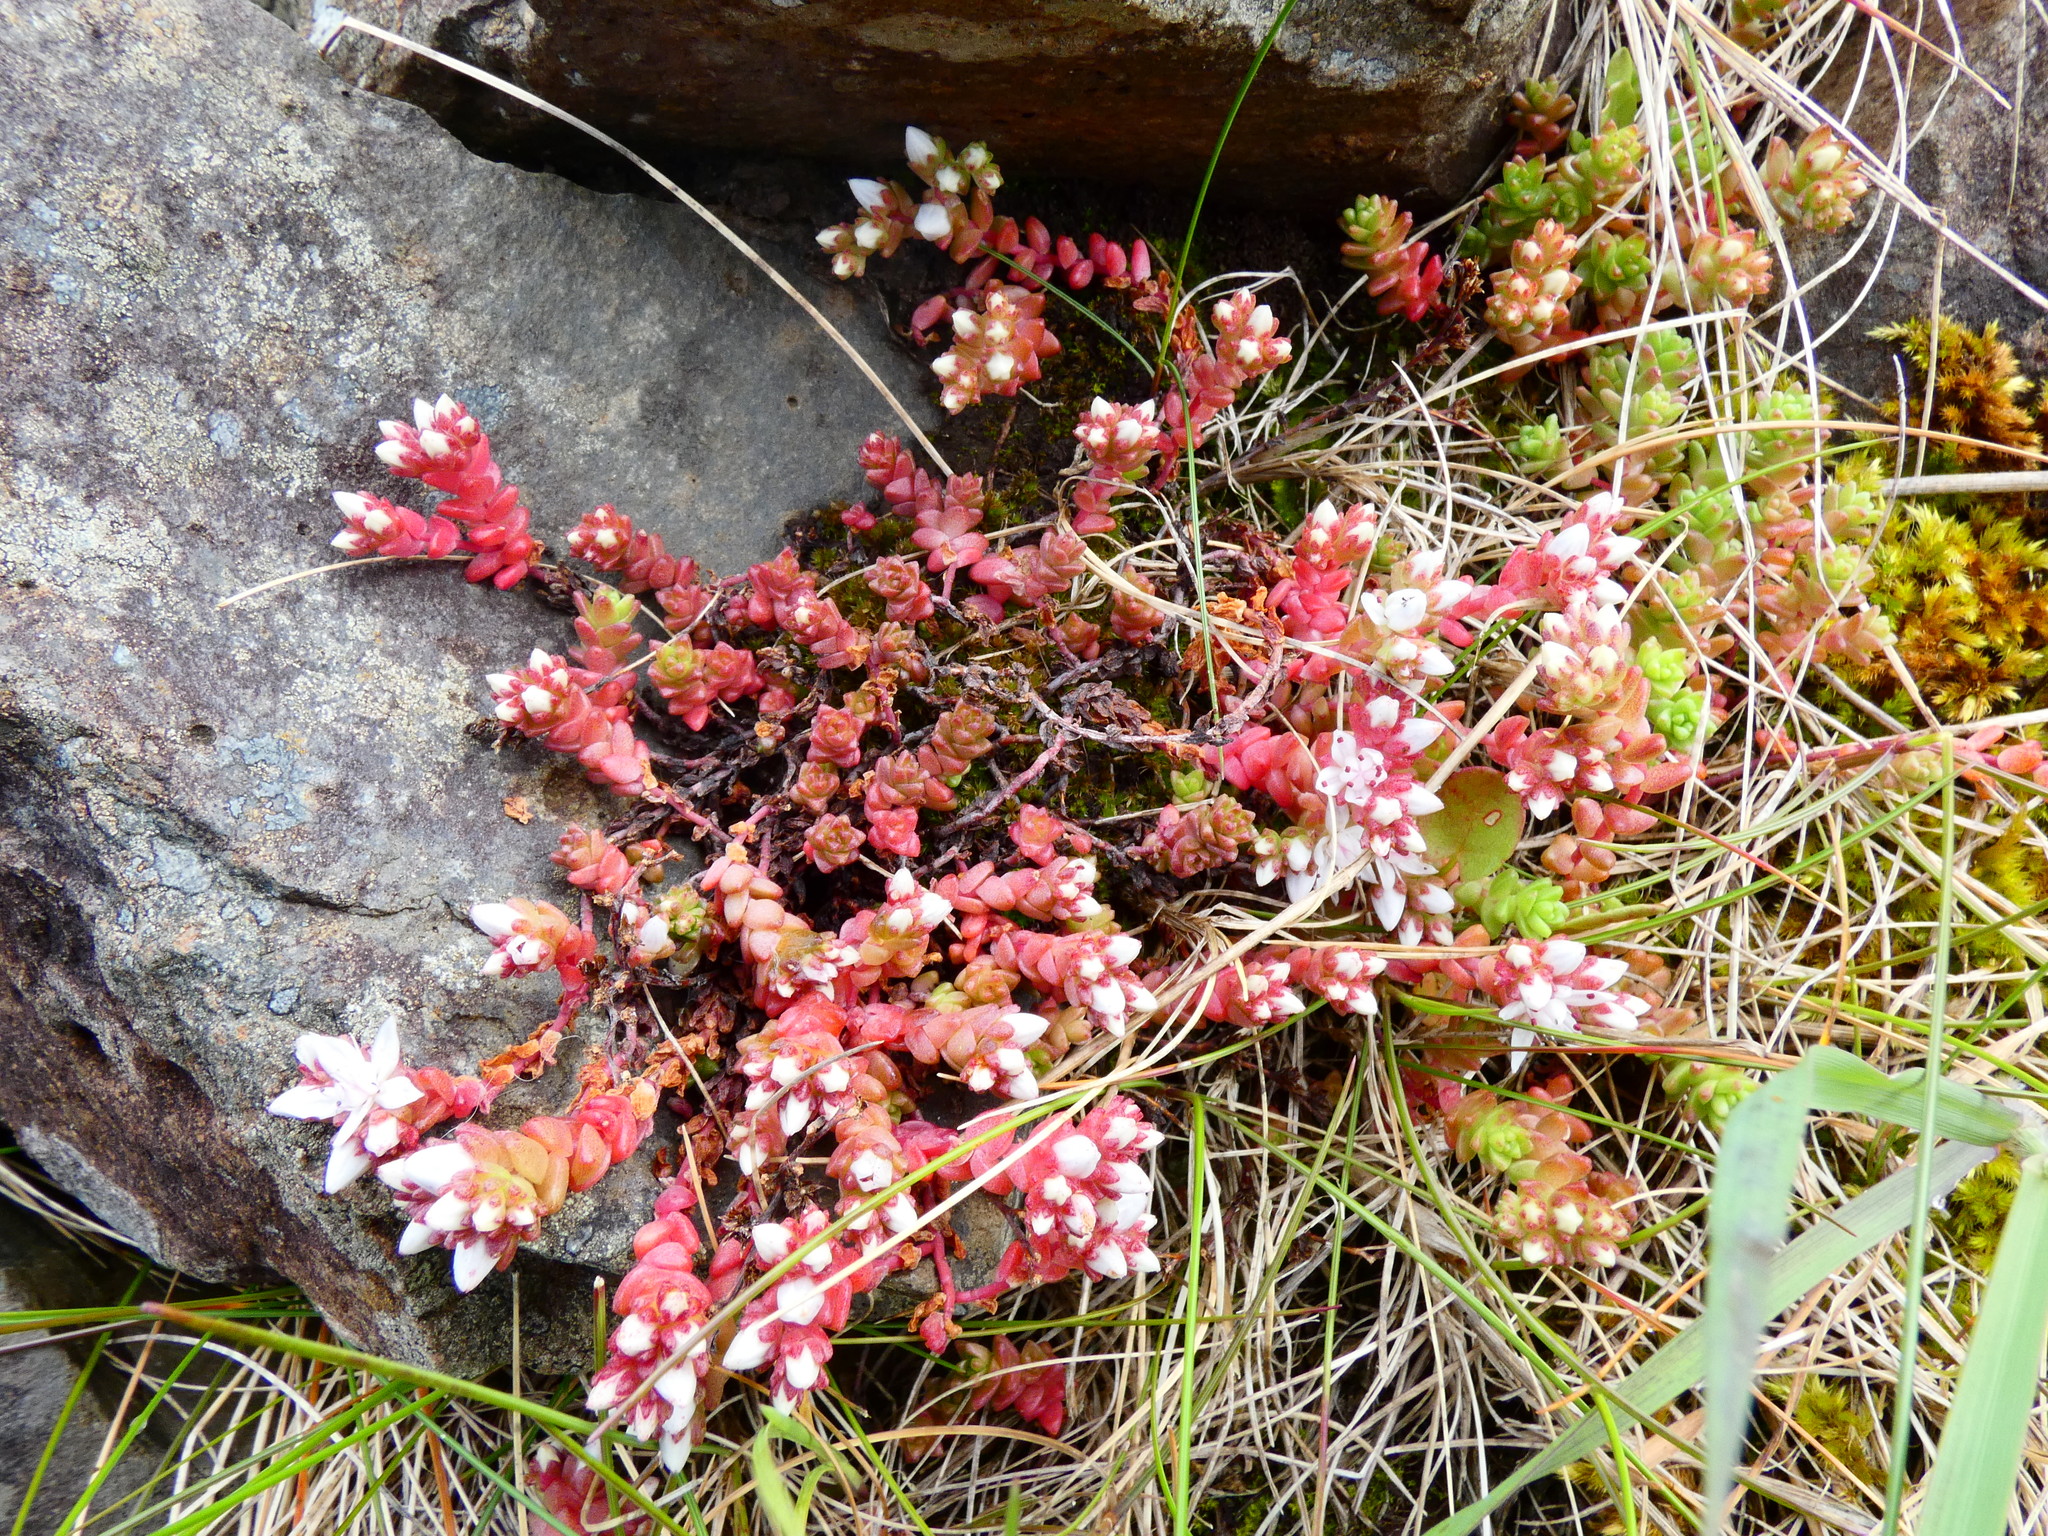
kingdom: Plantae
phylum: Tracheophyta
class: Magnoliopsida
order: Saxifragales
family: Crassulaceae
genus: Sedum
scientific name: Sedum anglicum
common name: English stonecrop
